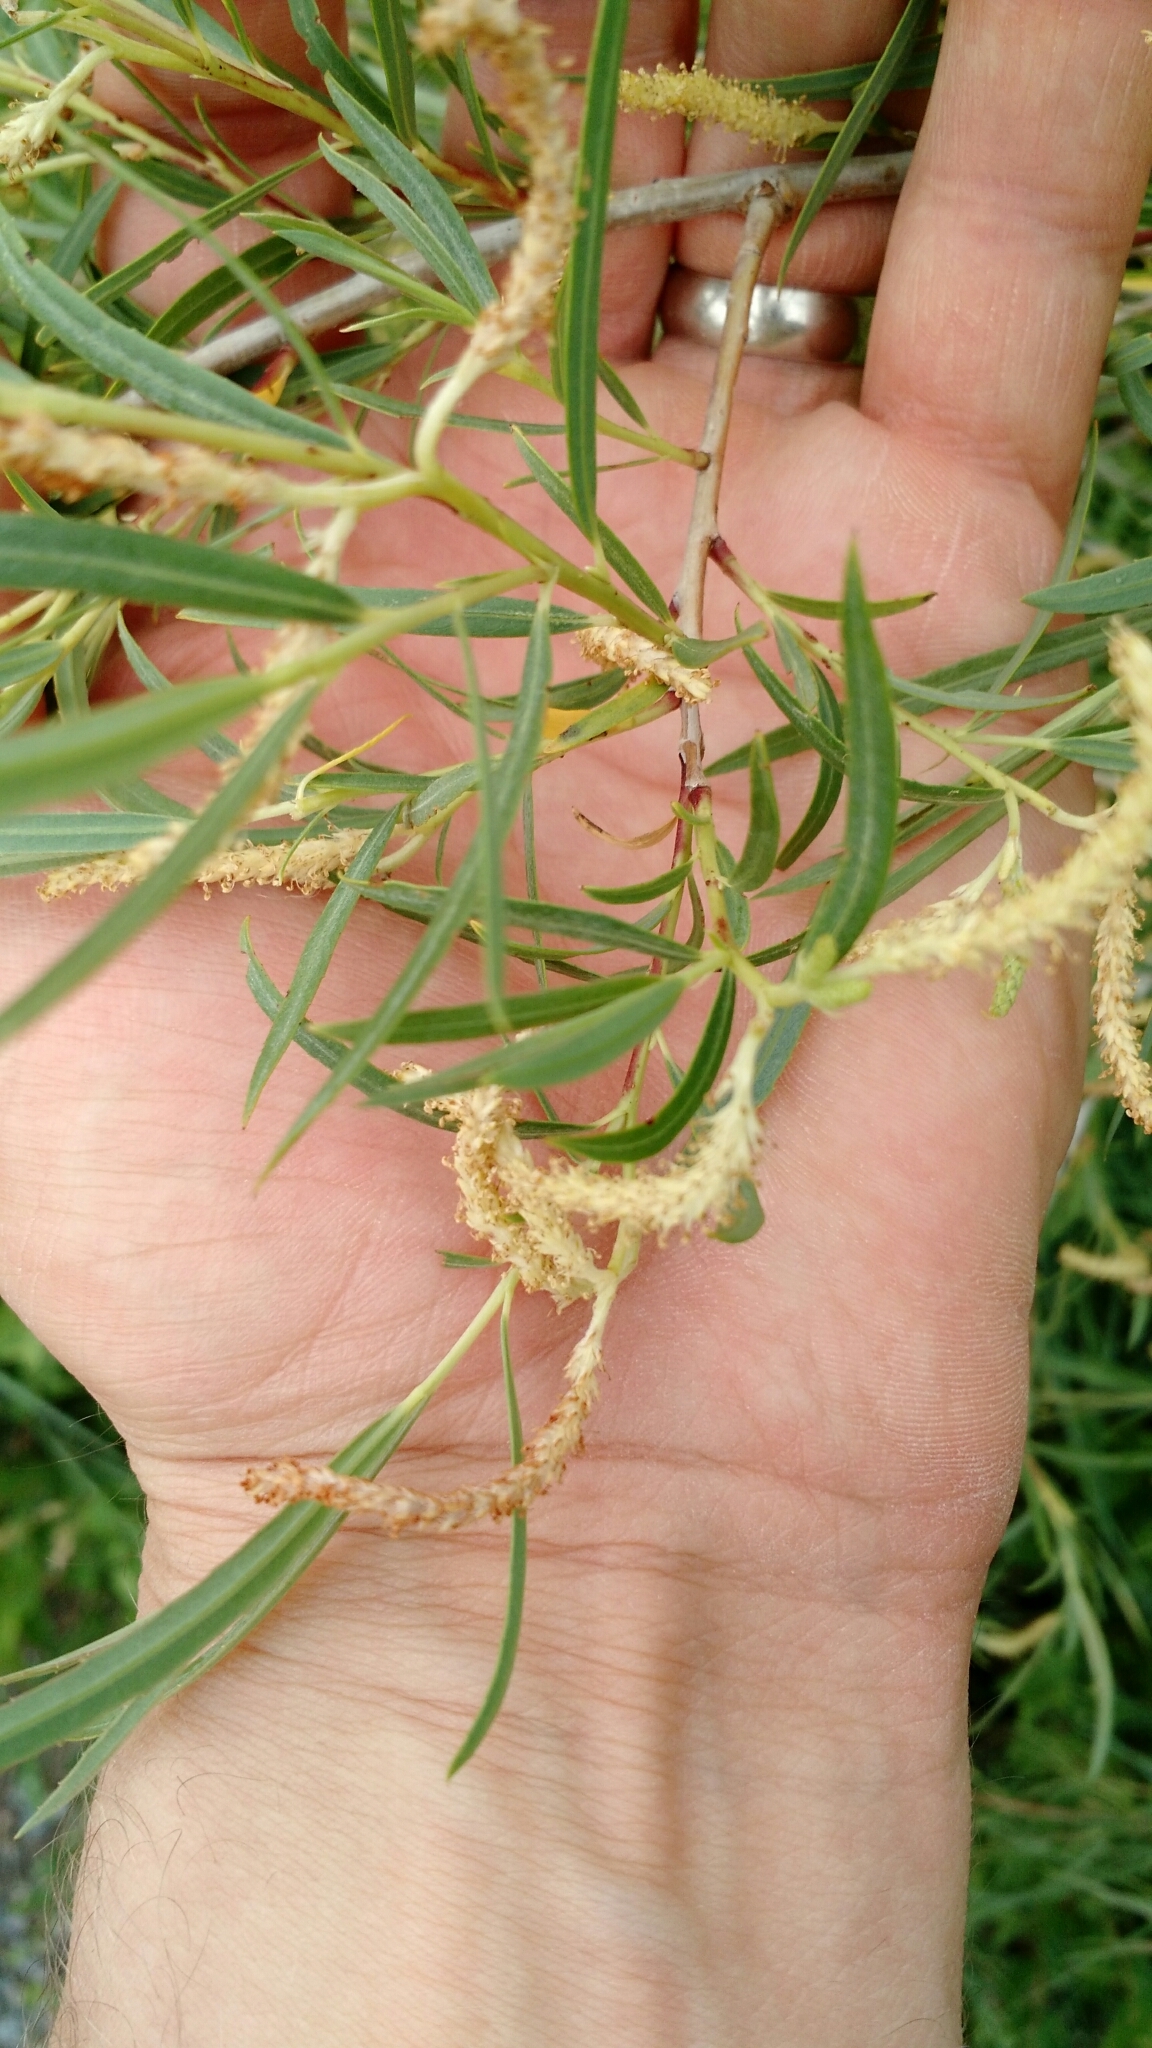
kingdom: Plantae
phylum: Tracheophyta
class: Magnoliopsida
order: Malpighiales
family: Salicaceae
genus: Salix
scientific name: Salix exigua
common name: Coyote willow
